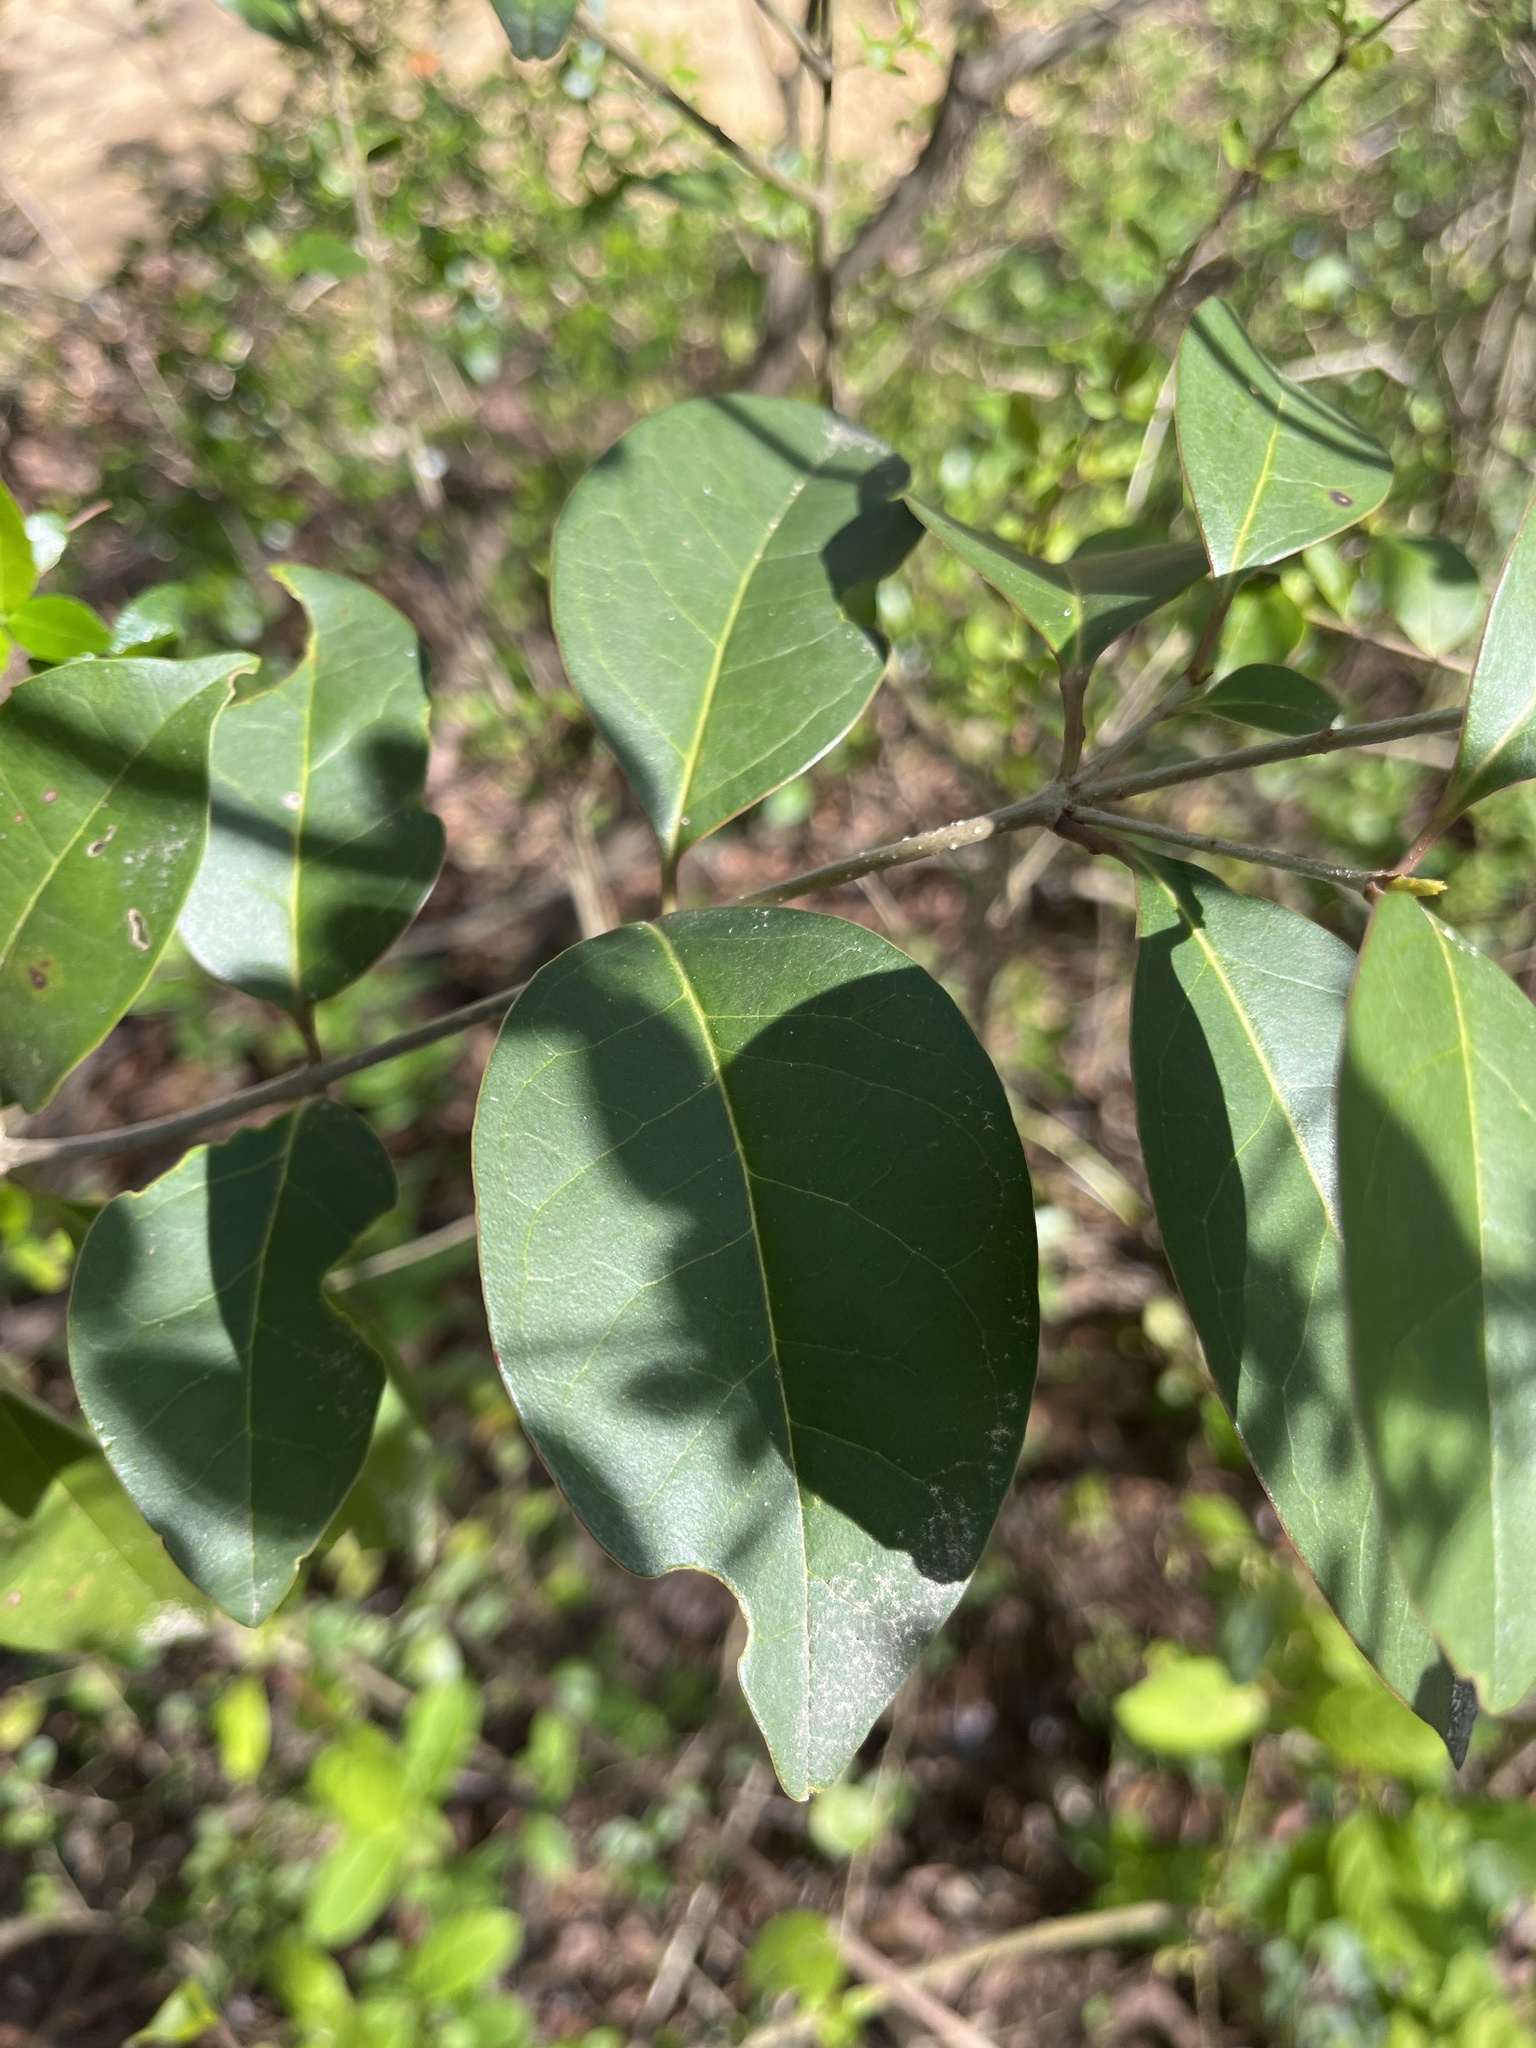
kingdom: Plantae
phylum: Tracheophyta
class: Magnoliopsida
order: Lamiales
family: Oleaceae
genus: Ligustrum
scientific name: Ligustrum lucidum
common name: Glossy privet
